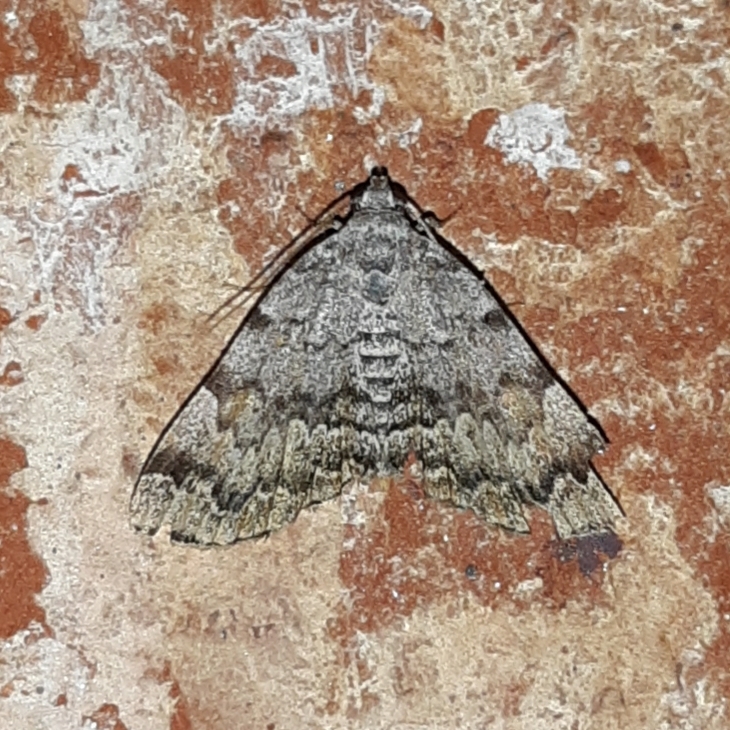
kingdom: Animalia
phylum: Arthropoda
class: Insecta
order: Lepidoptera
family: Erebidae
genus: Idia
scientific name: Idia americalis
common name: American idia moth
